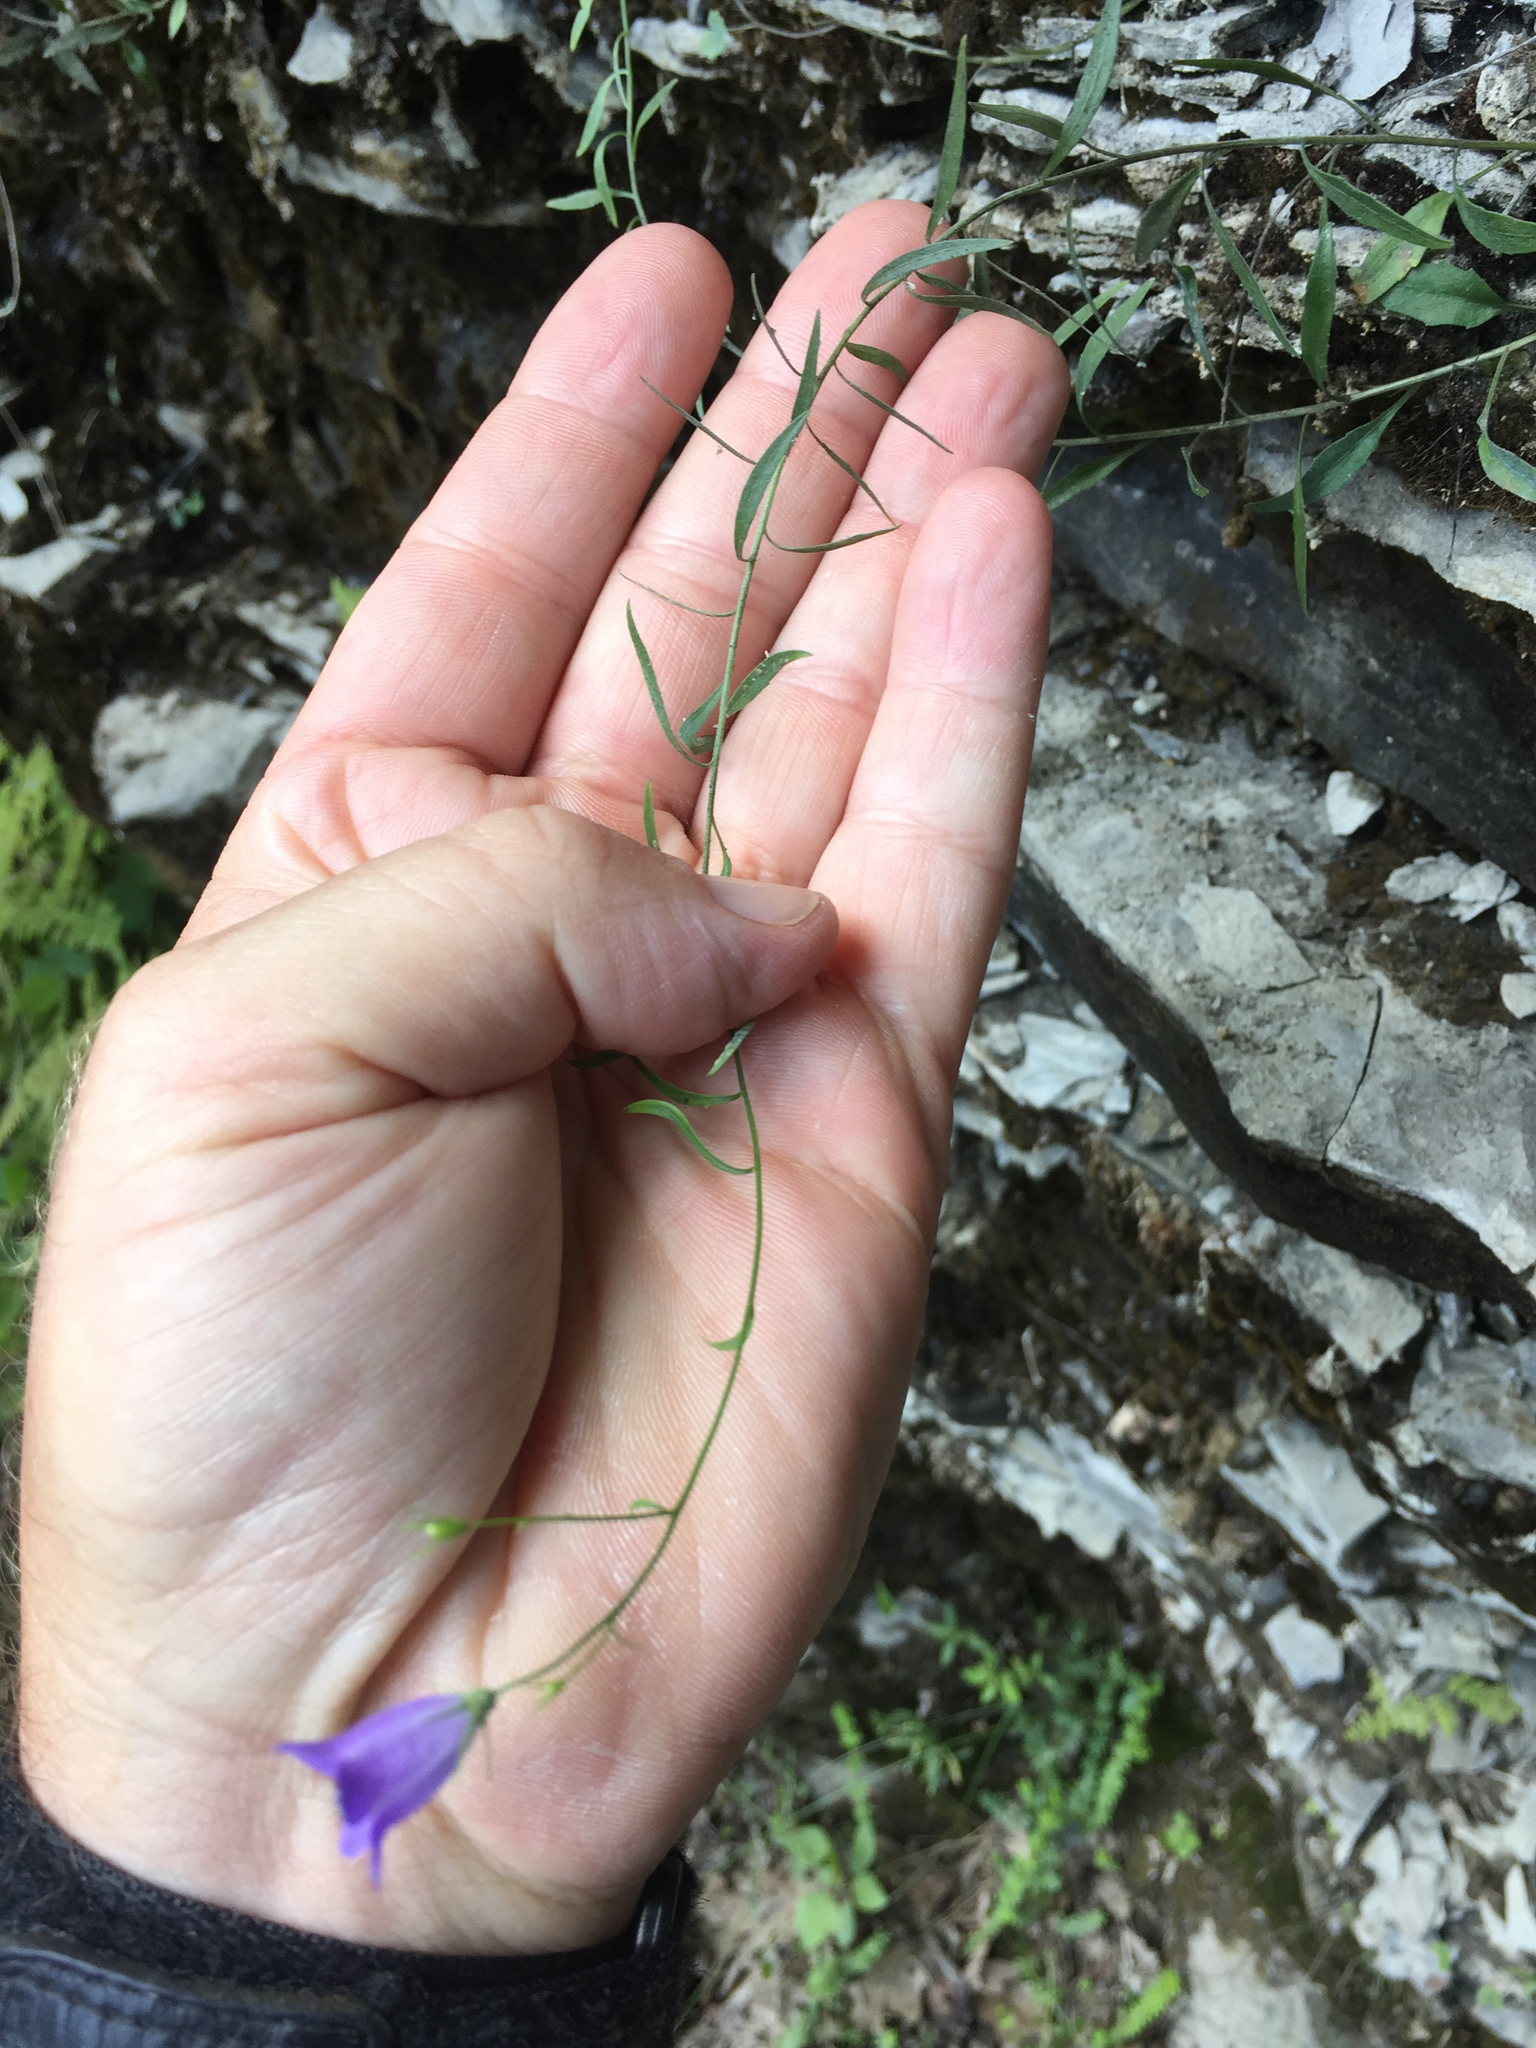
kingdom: Plantae
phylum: Tracheophyta
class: Magnoliopsida
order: Asterales
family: Campanulaceae
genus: Campanula
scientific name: Campanula intercedens
